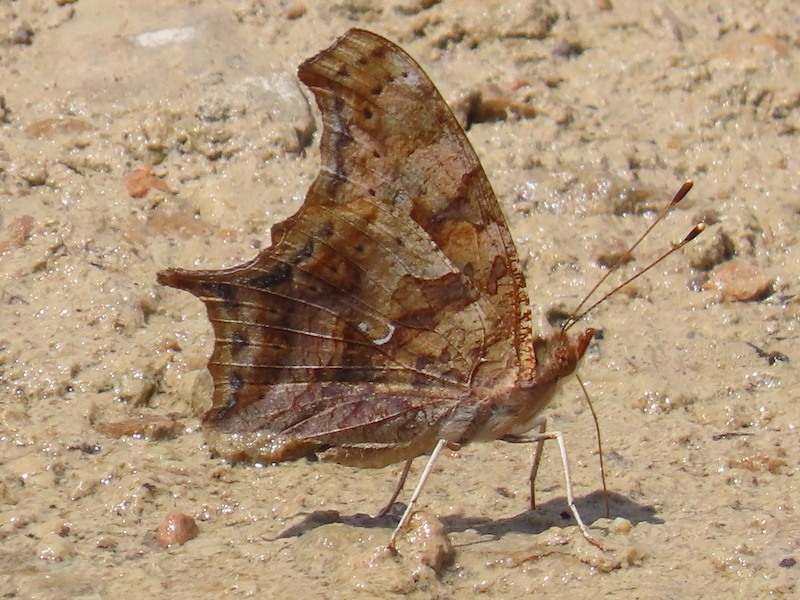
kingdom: Animalia
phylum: Arthropoda
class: Insecta
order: Lepidoptera
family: Nymphalidae
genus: Polygonia
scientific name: Polygonia interrogationis
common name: Question mark
